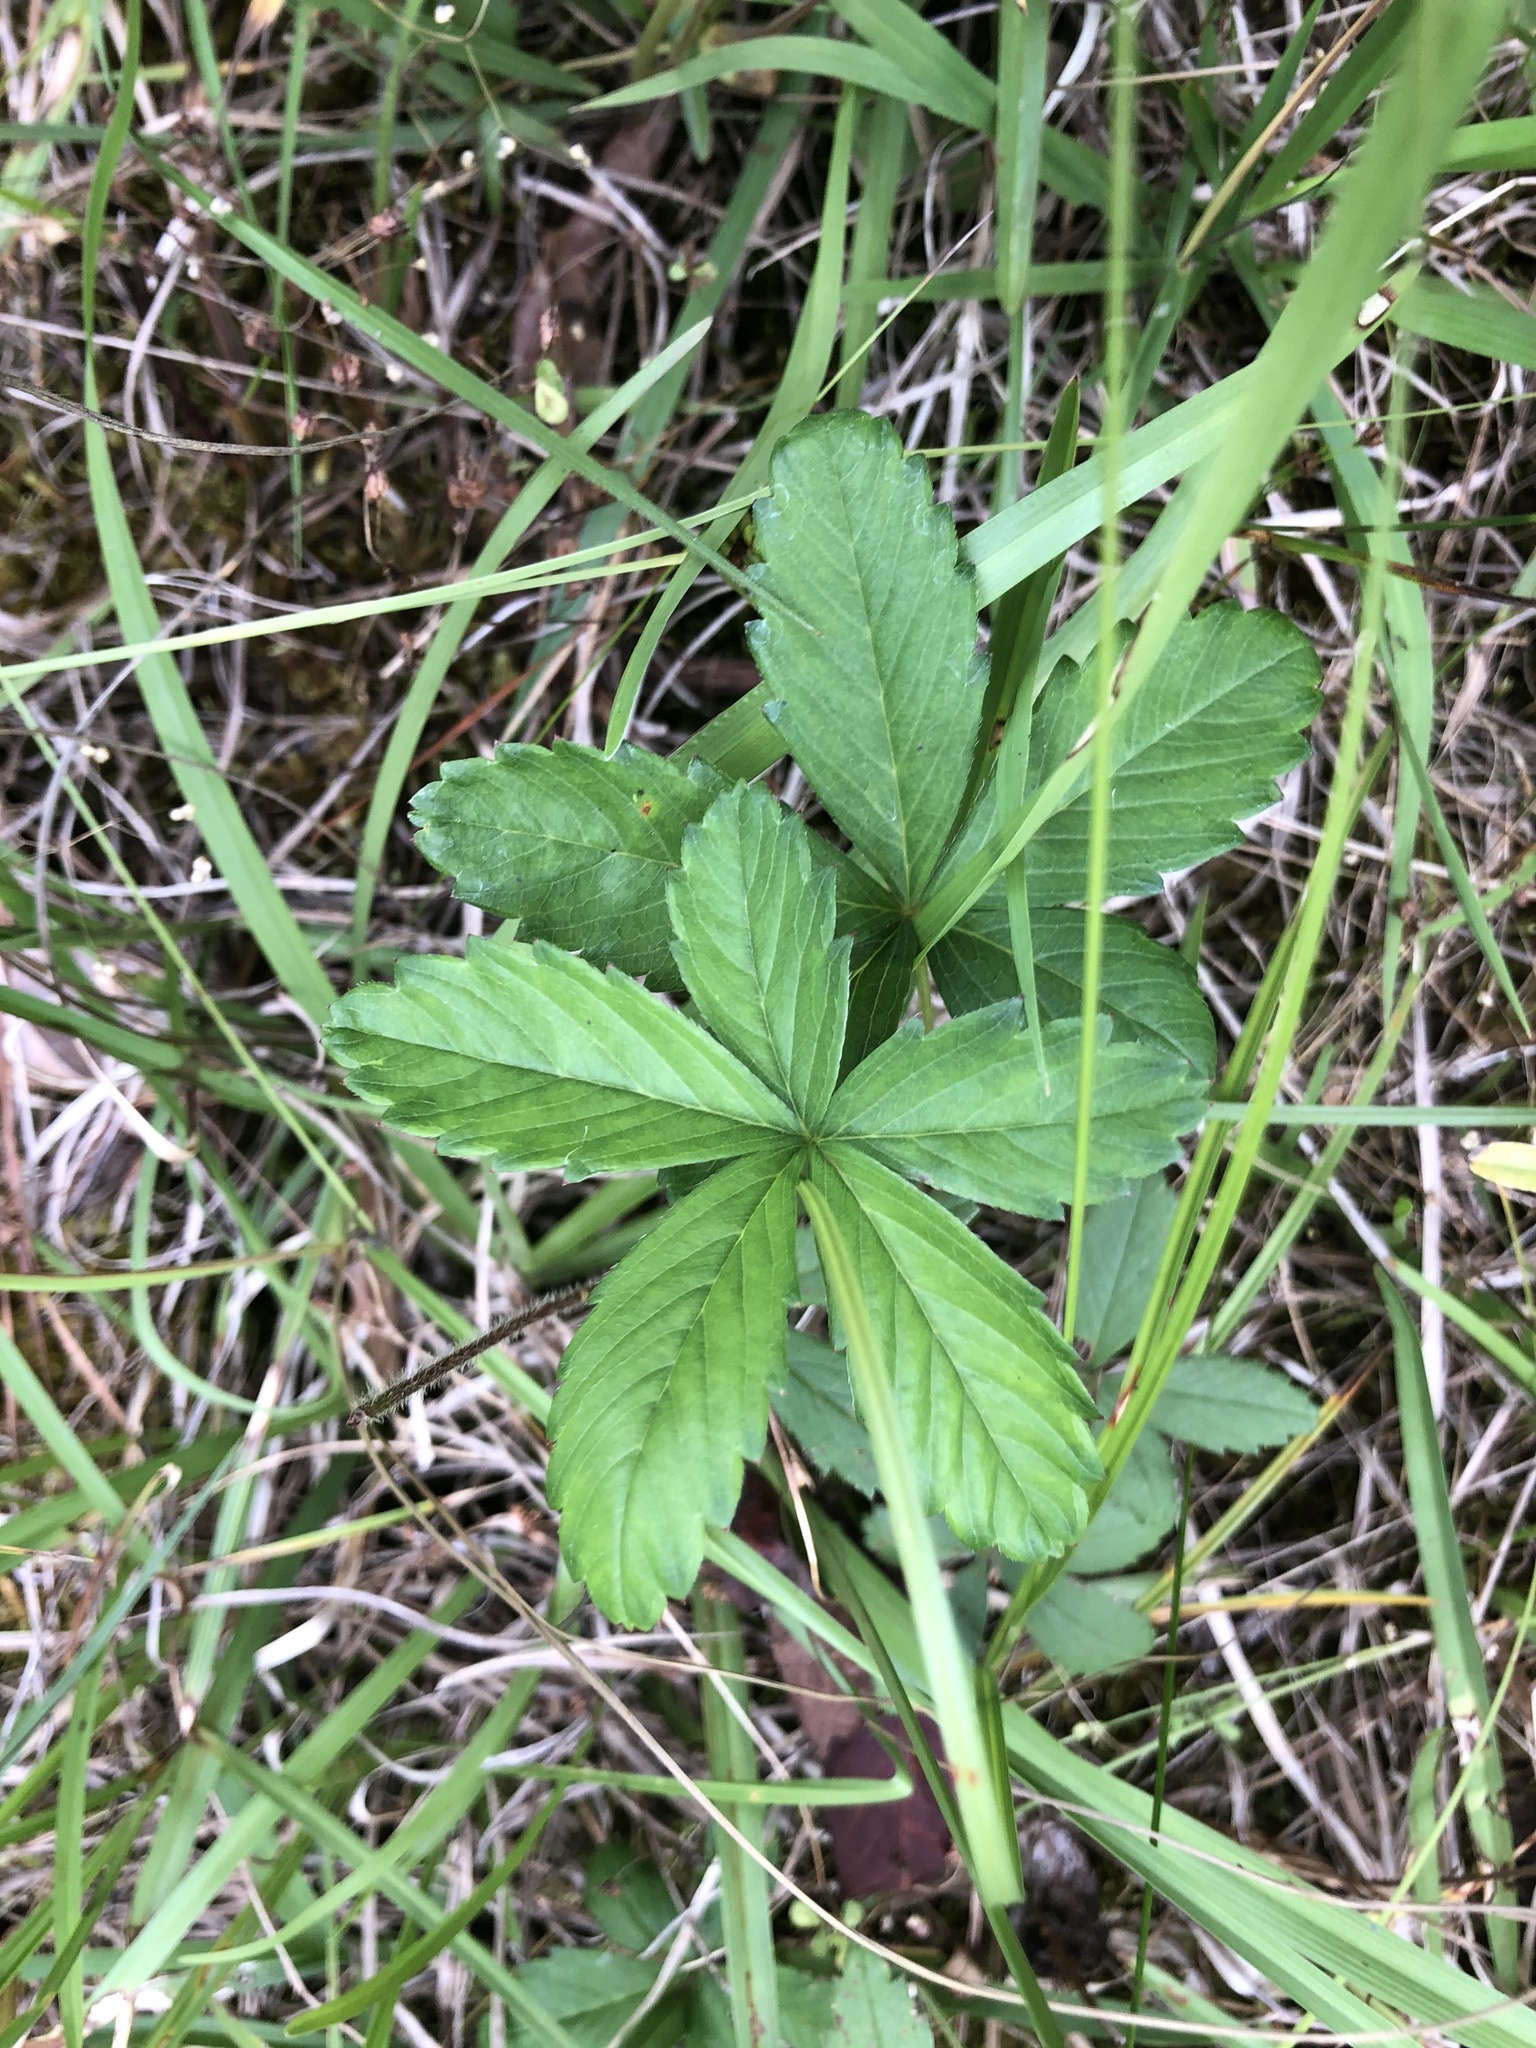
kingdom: Plantae
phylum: Tracheophyta
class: Magnoliopsida
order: Rosales
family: Rosaceae
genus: Potentilla
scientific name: Potentilla simplex
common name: Old field cinquefoil
